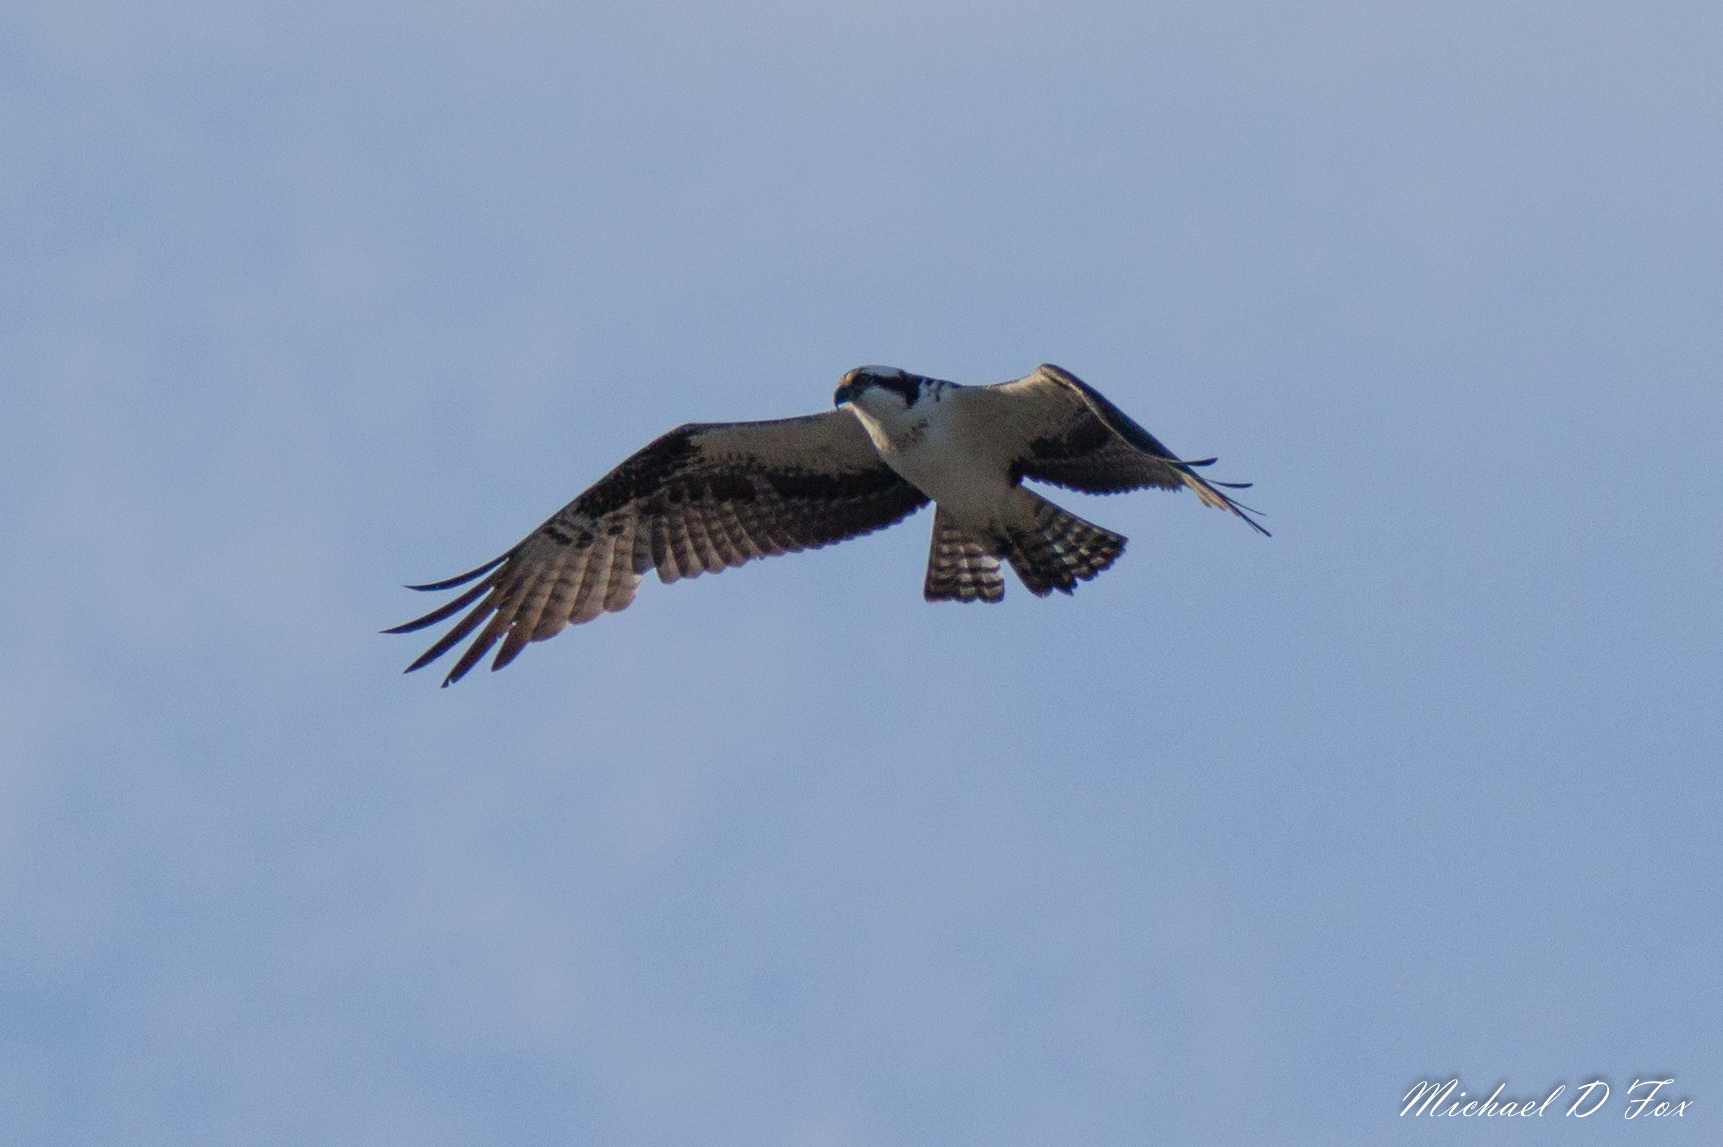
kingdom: Animalia
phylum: Chordata
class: Aves
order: Accipitriformes
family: Pandionidae
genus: Pandion
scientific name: Pandion haliaetus
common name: Osprey
